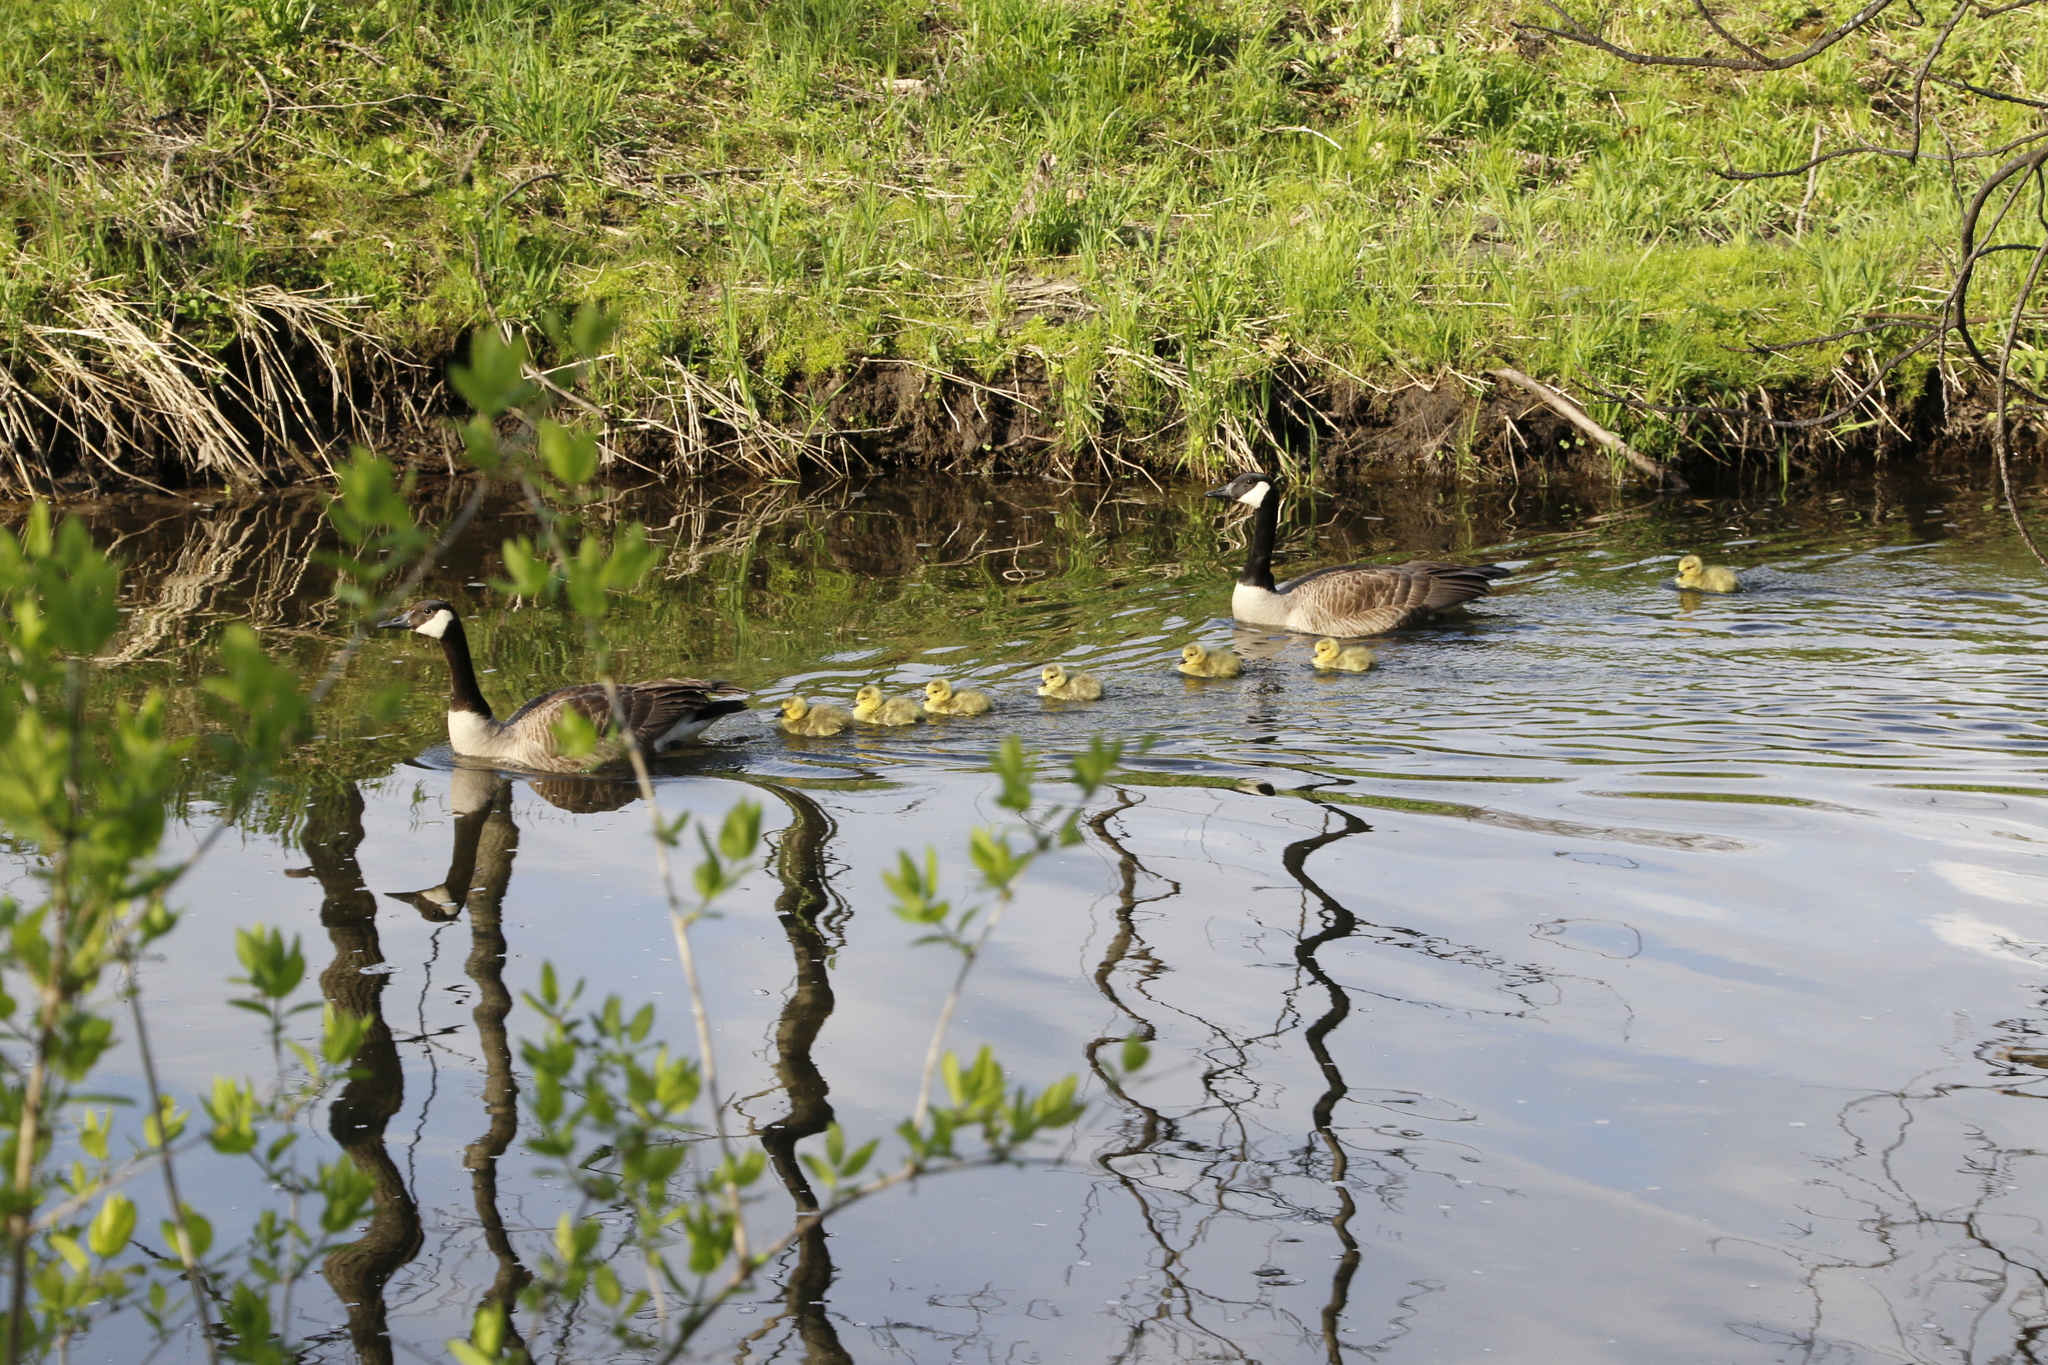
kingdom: Animalia
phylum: Chordata
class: Aves
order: Anseriformes
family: Anatidae
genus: Branta
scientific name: Branta canadensis
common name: Canada goose
